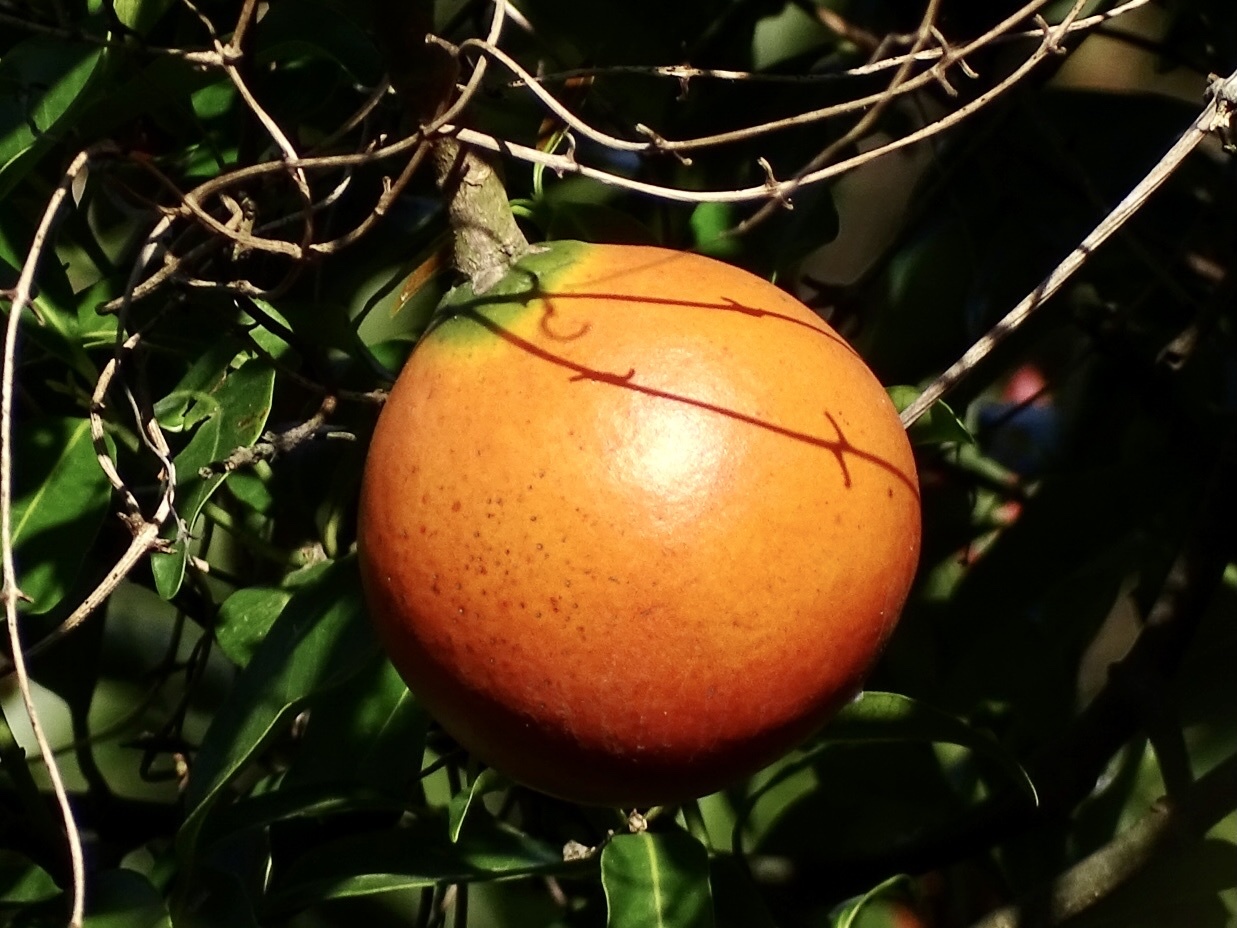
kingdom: Plantae
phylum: Tracheophyta
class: Magnoliopsida
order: Gentianales
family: Apocynaceae
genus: Melodinus
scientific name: Melodinus suaveolens
